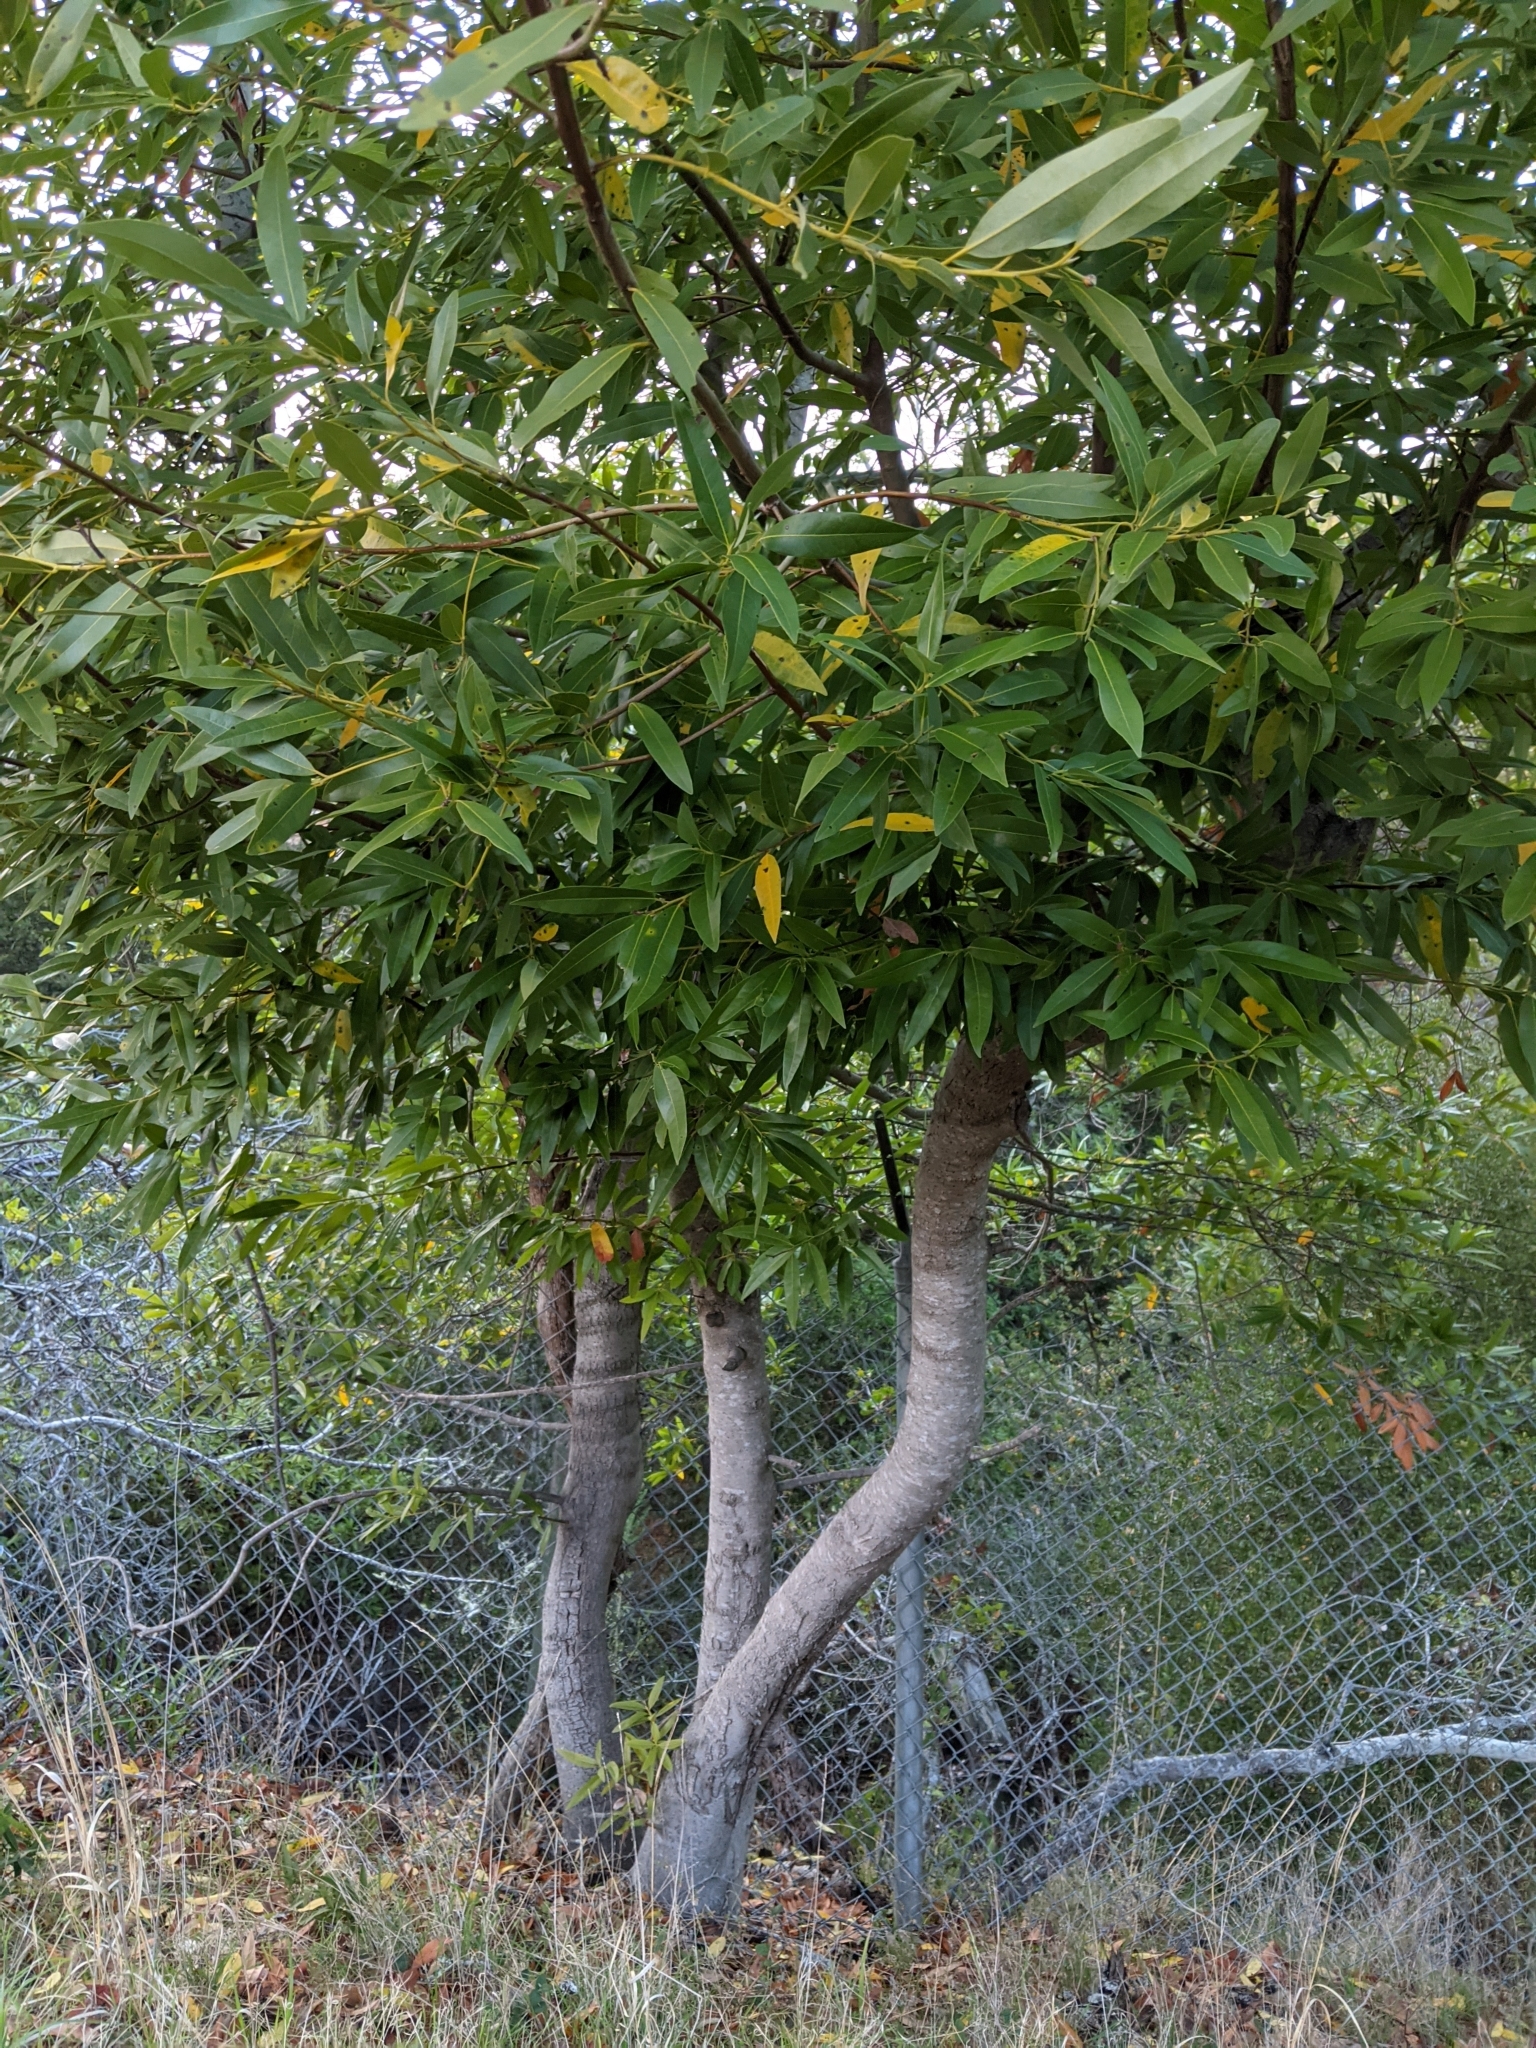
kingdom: Plantae
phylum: Tracheophyta
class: Magnoliopsida
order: Laurales
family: Lauraceae
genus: Umbellularia
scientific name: Umbellularia californica
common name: California bay
